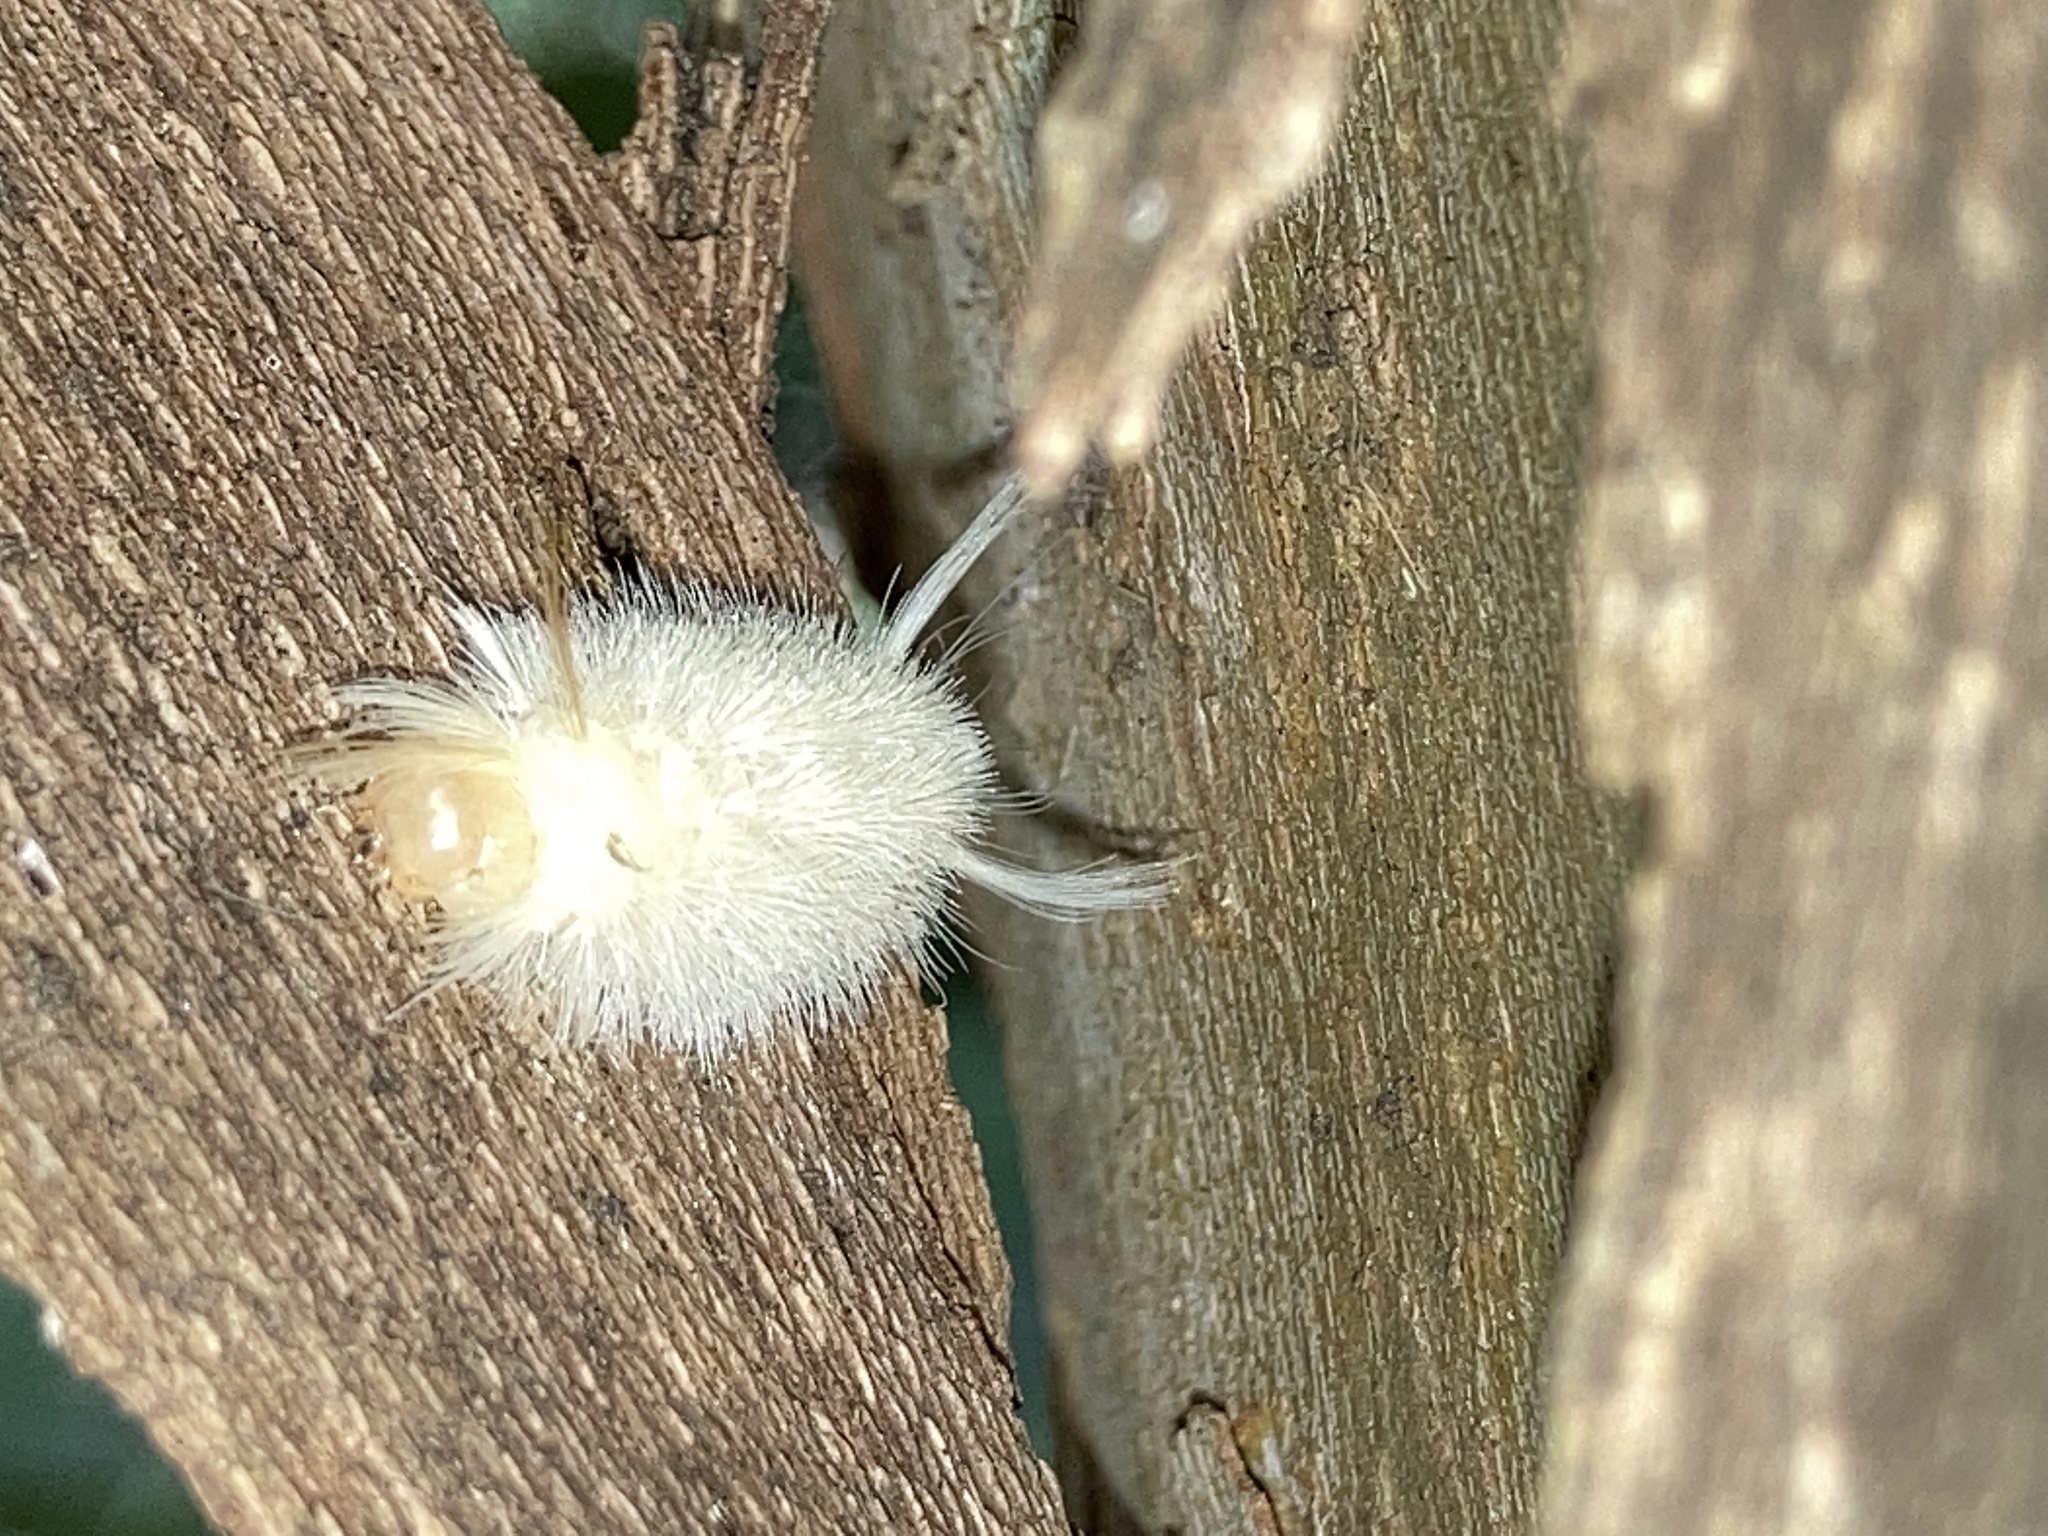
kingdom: Animalia
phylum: Arthropoda
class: Insecta
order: Lepidoptera
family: Erebidae
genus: Halysidota
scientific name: Halysidota harrisii
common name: Sycamore tussock moth
